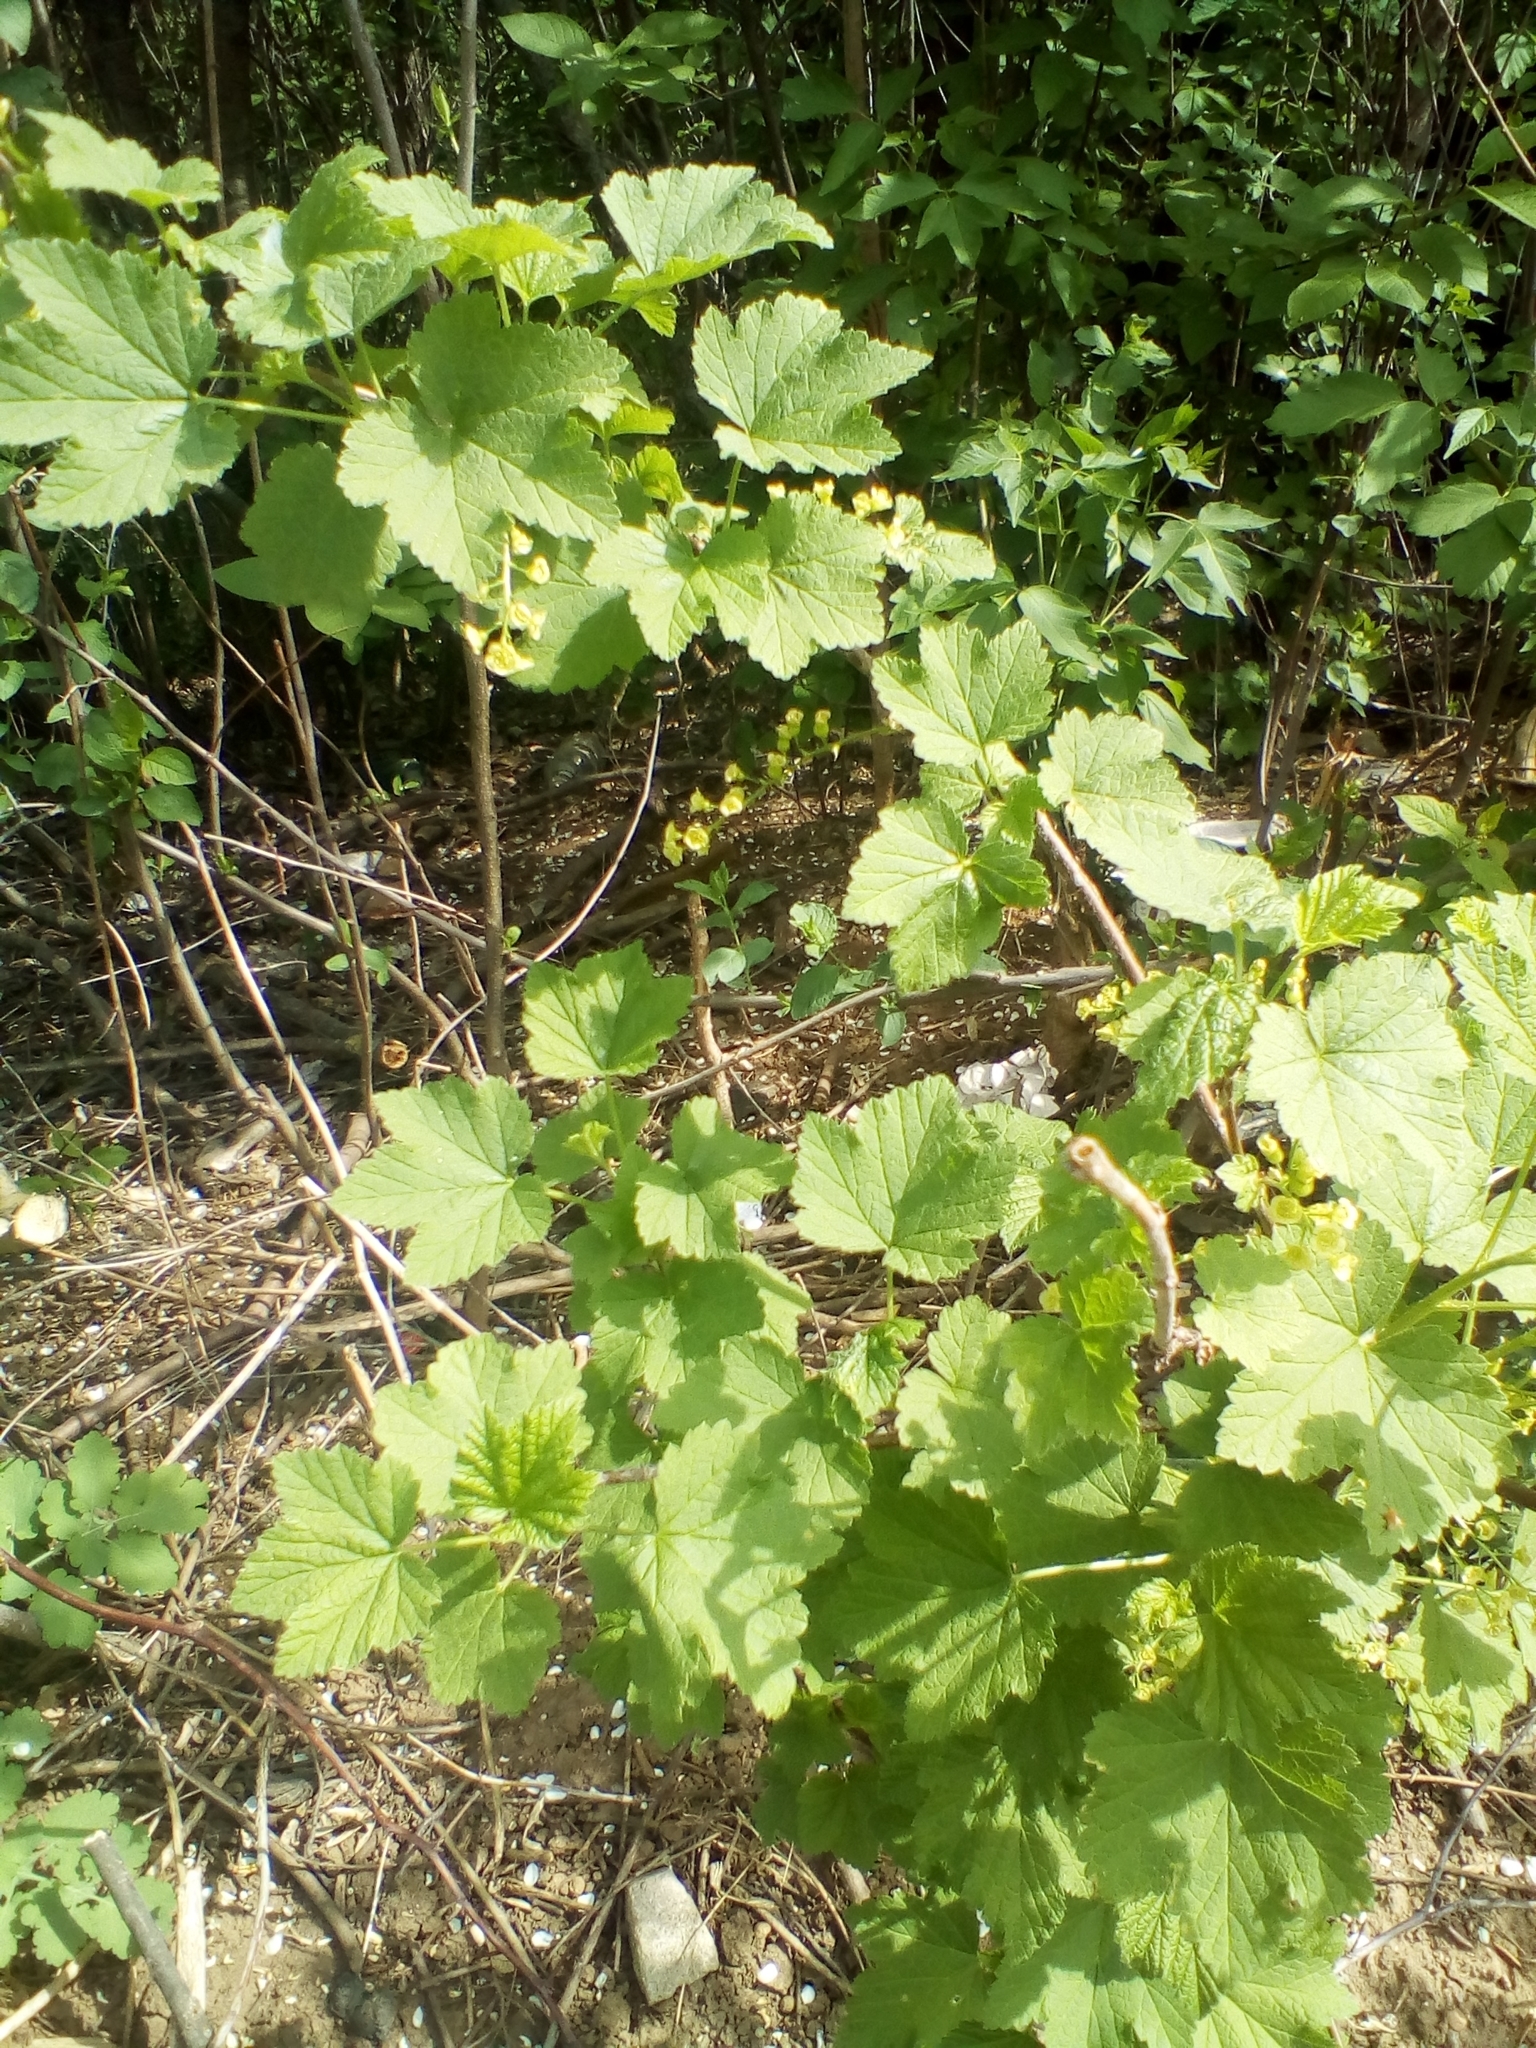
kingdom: Plantae
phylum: Tracheophyta
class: Magnoliopsida
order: Saxifragales
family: Grossulariaceae
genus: Ribes
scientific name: Ribes rubrum
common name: Red currant
